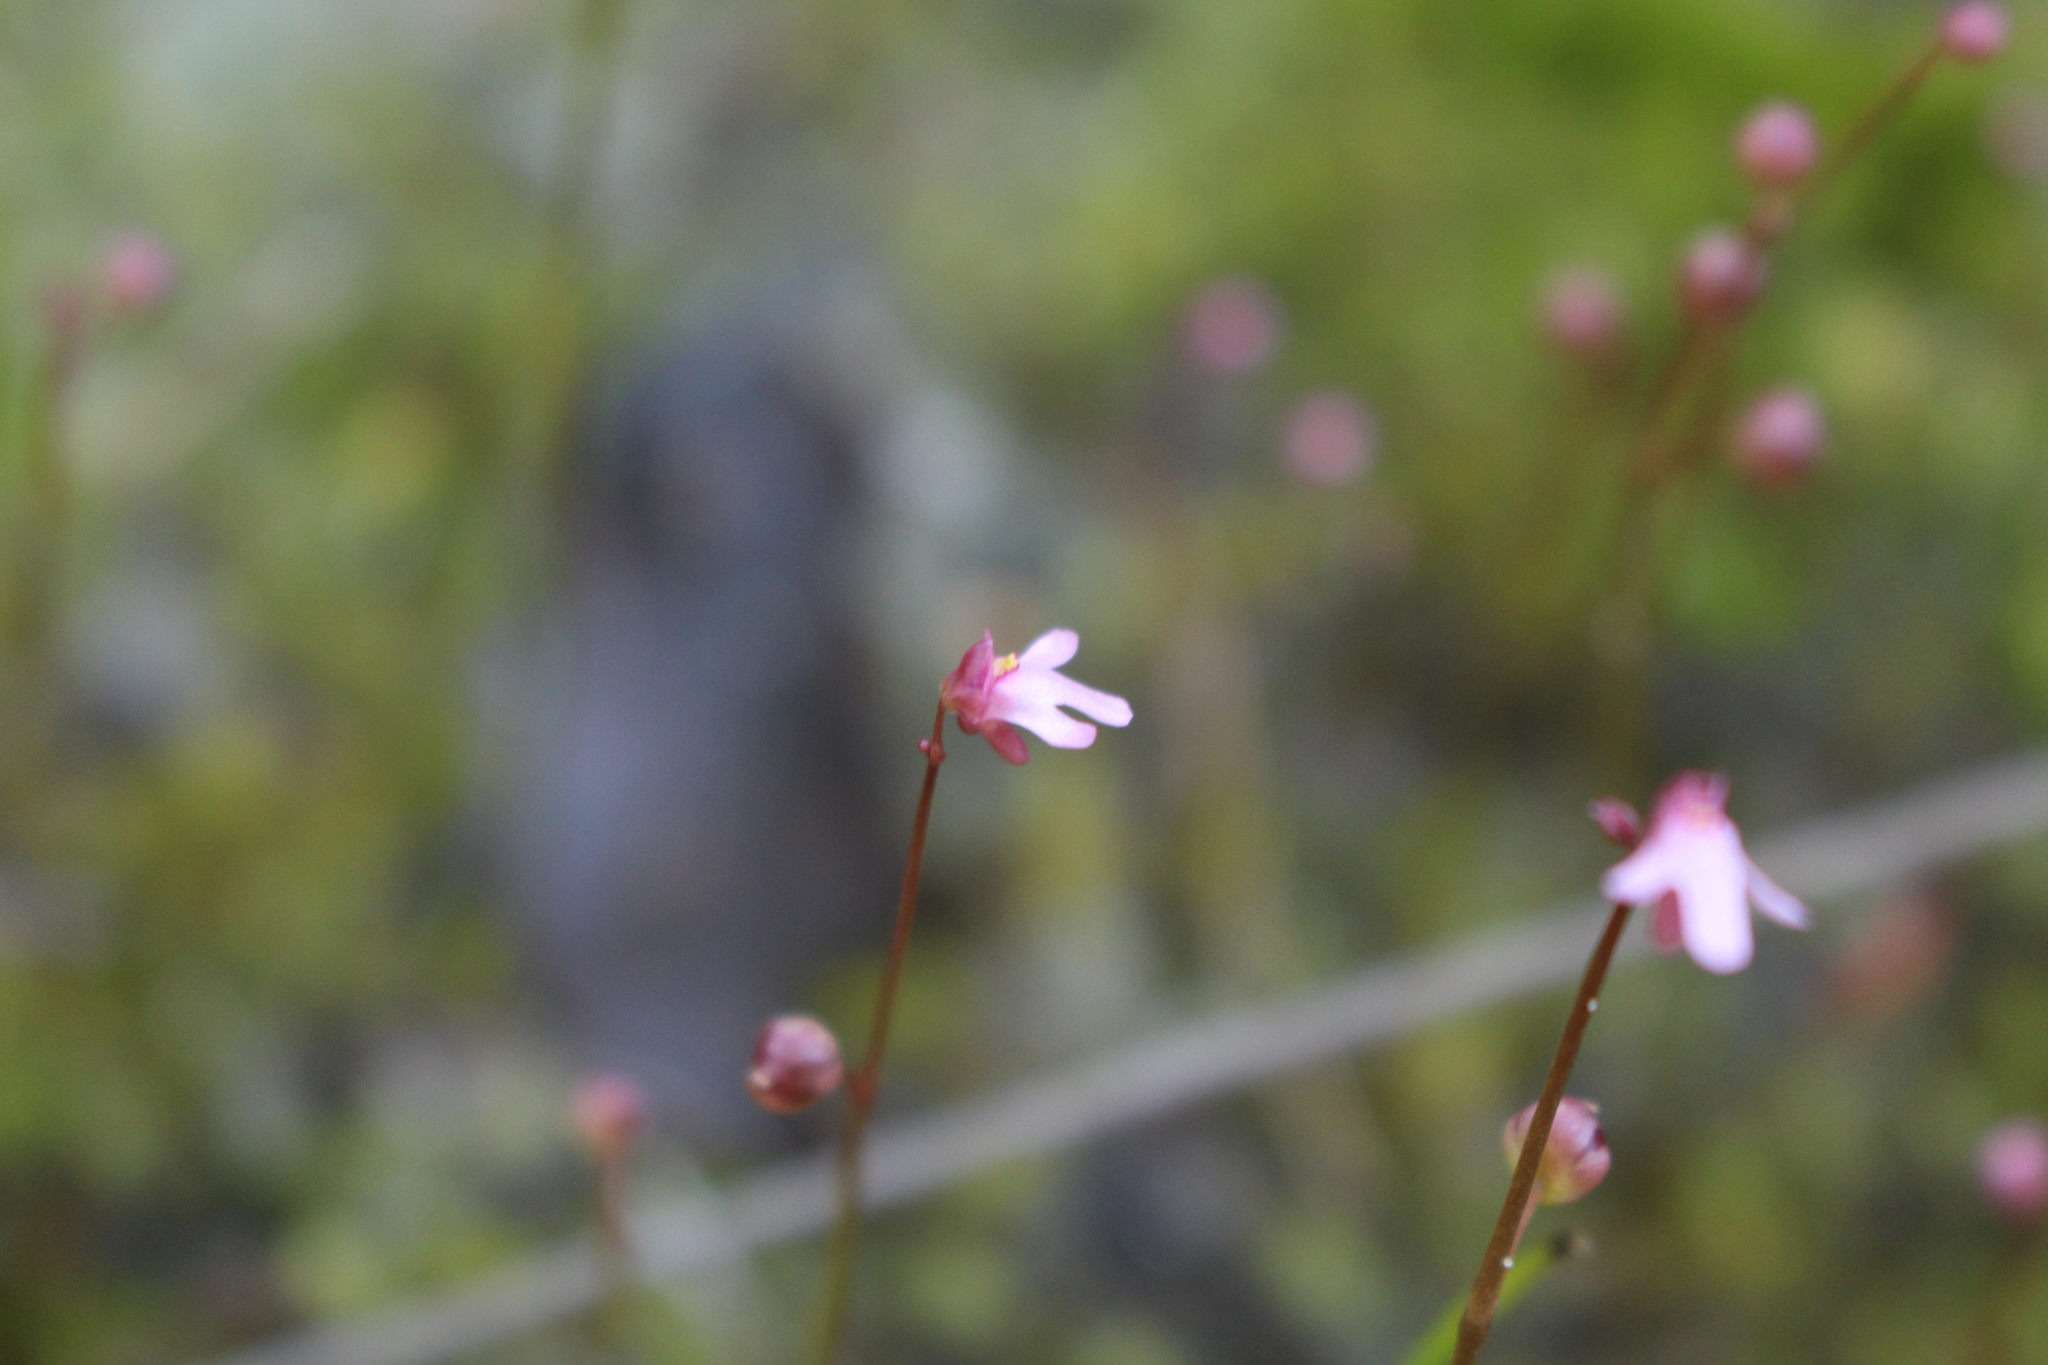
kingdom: Plantae
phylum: Tracheophyta
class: Magnoliopsida
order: Lamiales
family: Lentibulariaceae
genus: Utricularia
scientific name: Utricularia tenella
